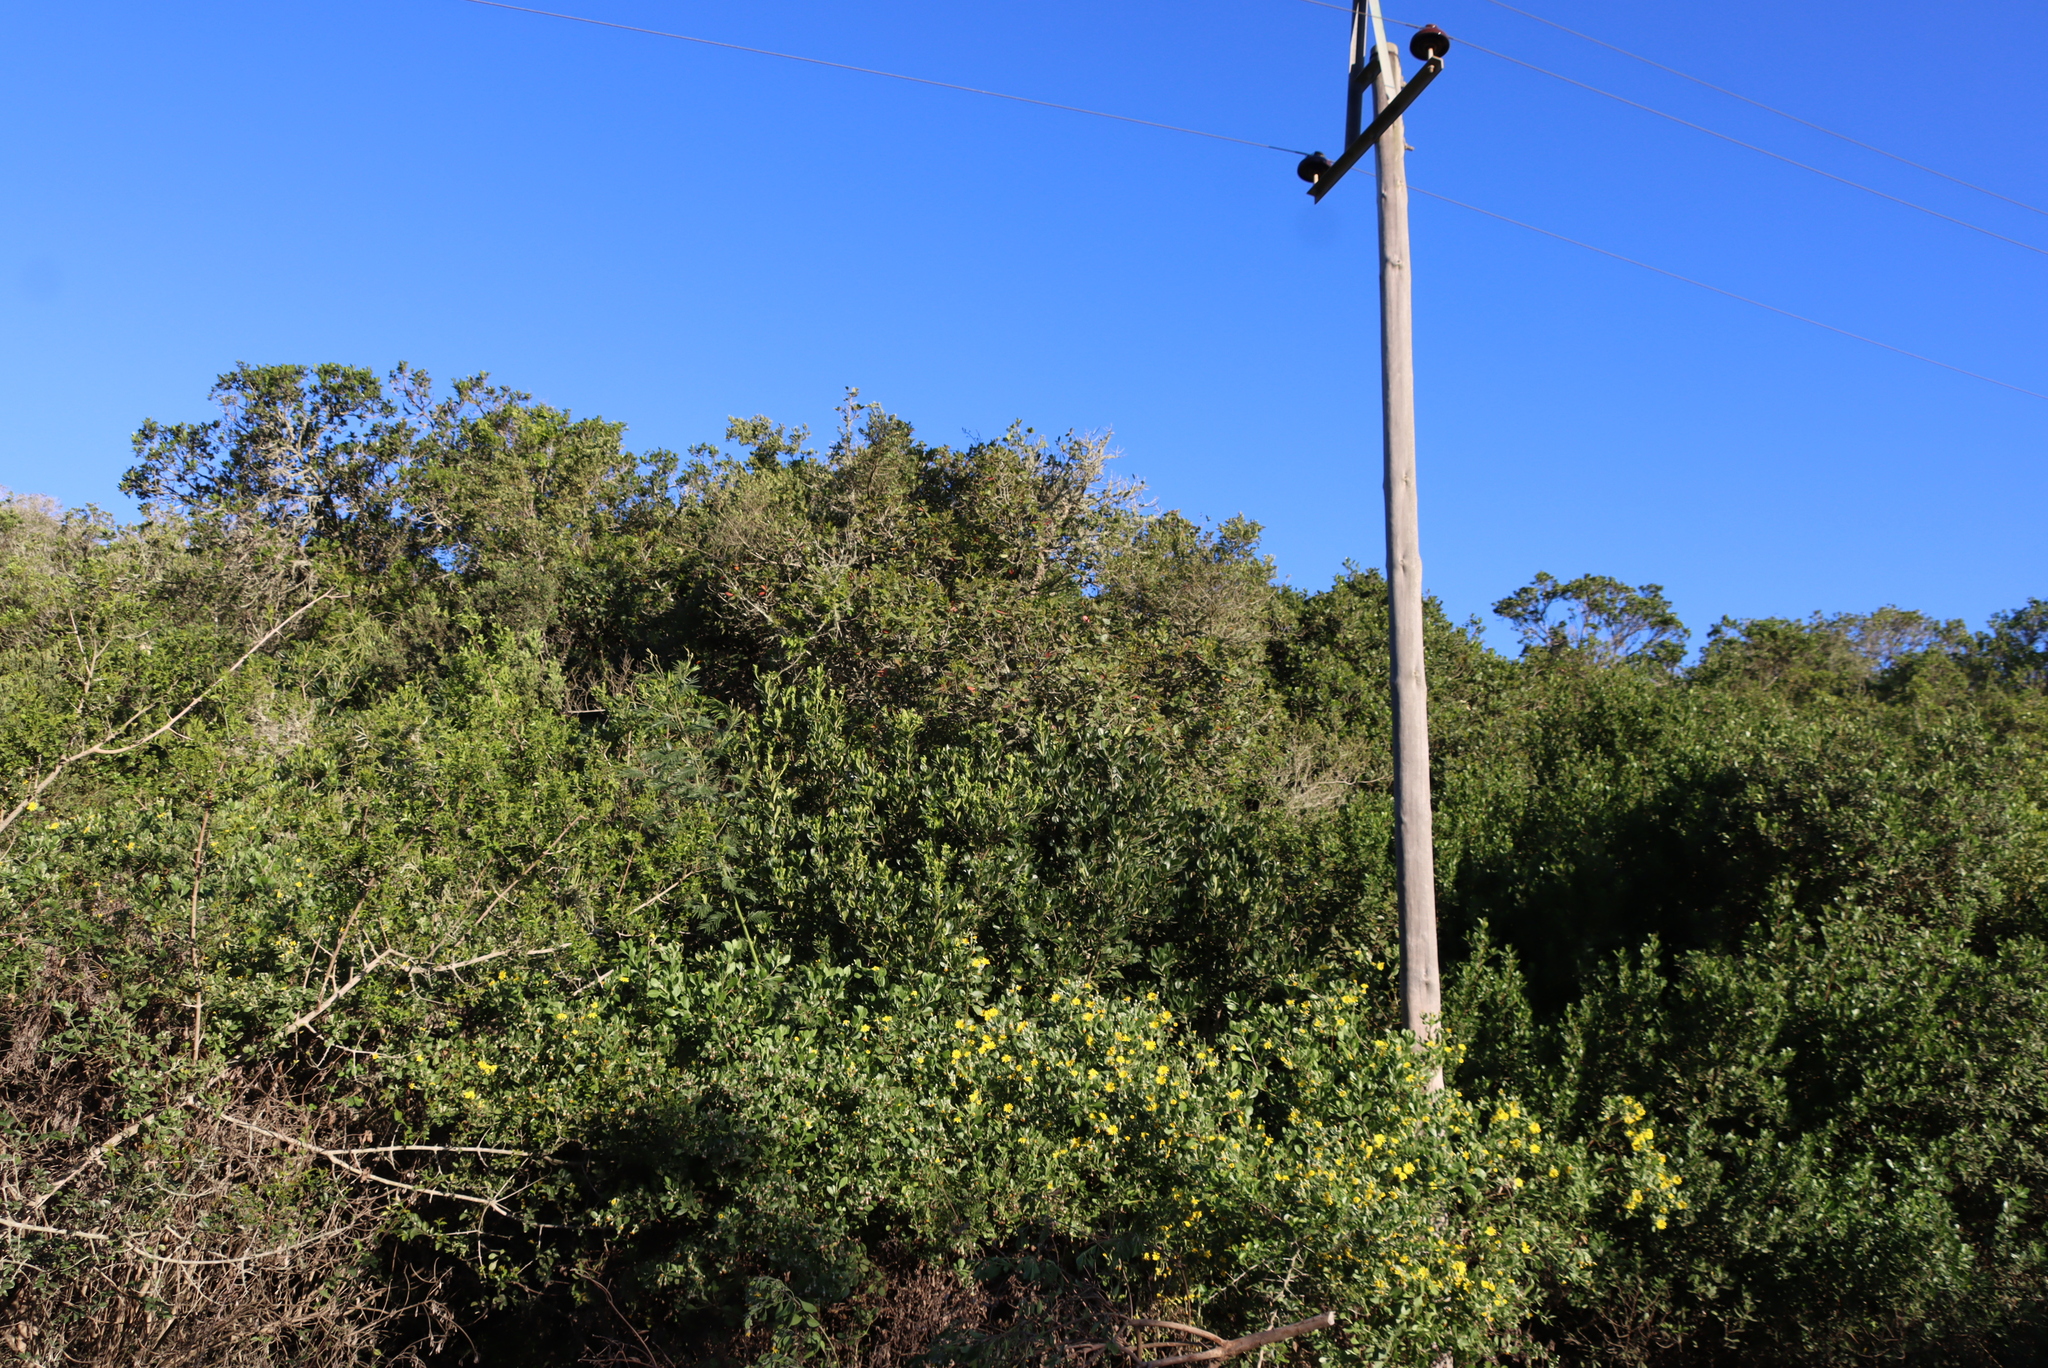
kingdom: Plantae
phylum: Tracheophyta
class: Magnoliopsida
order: Ericales
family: Sapotaceae
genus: Sideroxylon
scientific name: Sideroxylon inerme
